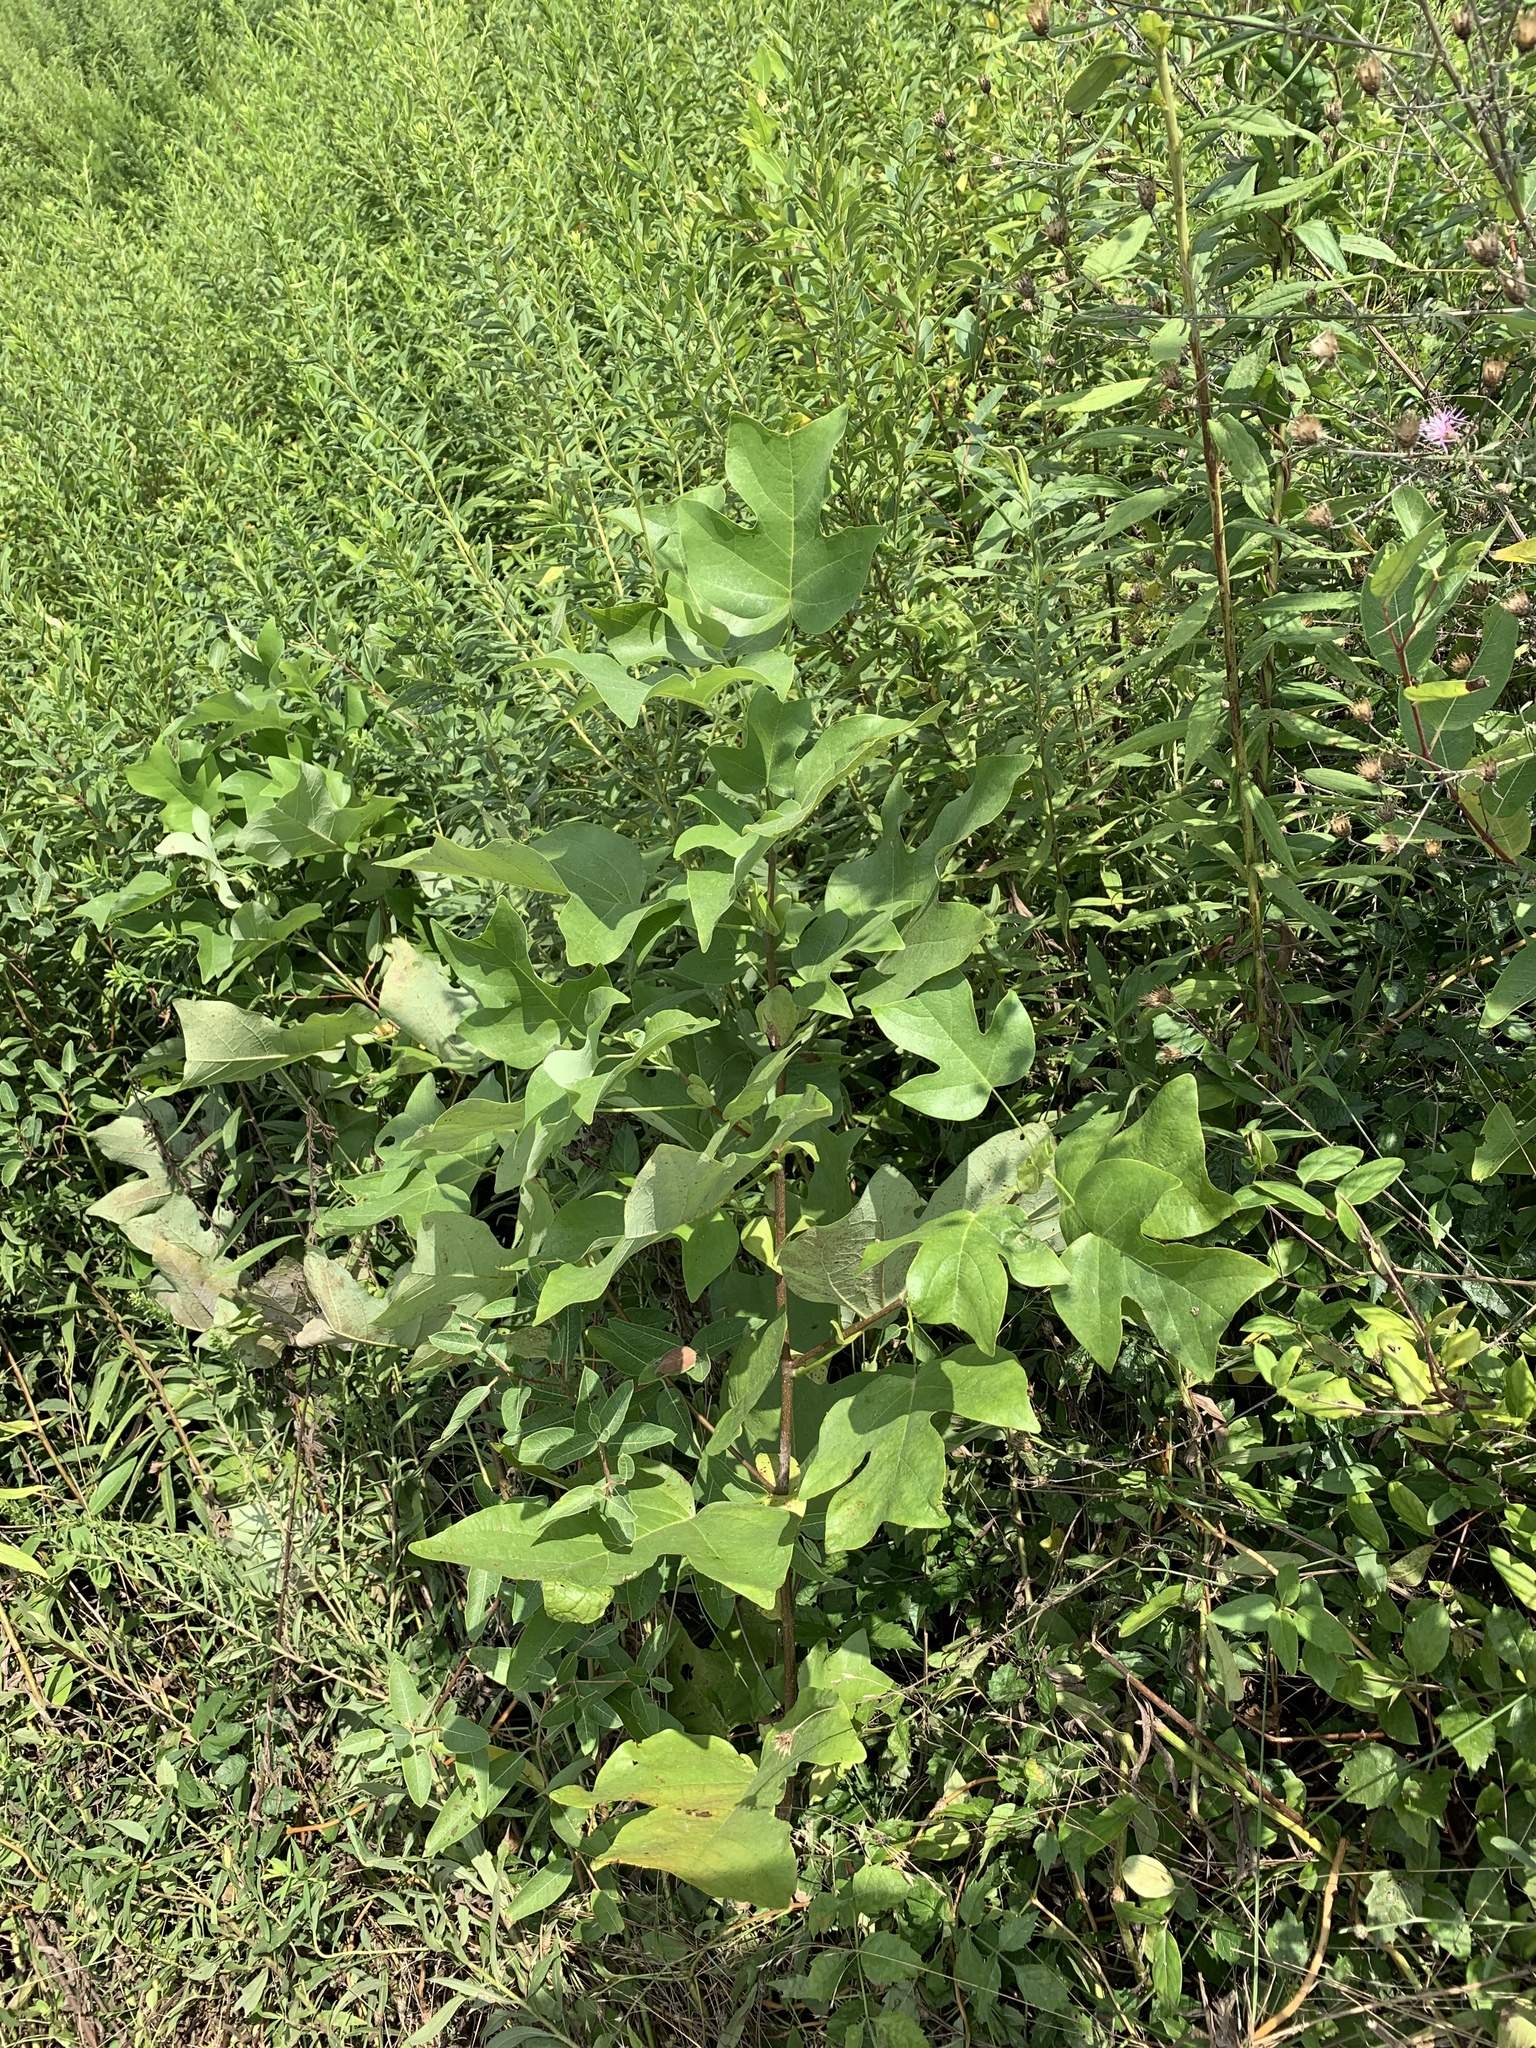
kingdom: Plantae
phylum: Tracheophyta
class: Magnoliopsida
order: Magnoliales
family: Magnoliaceae
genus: Liriodendron
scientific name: Liriodendron tulipifera
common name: Tulip tree
